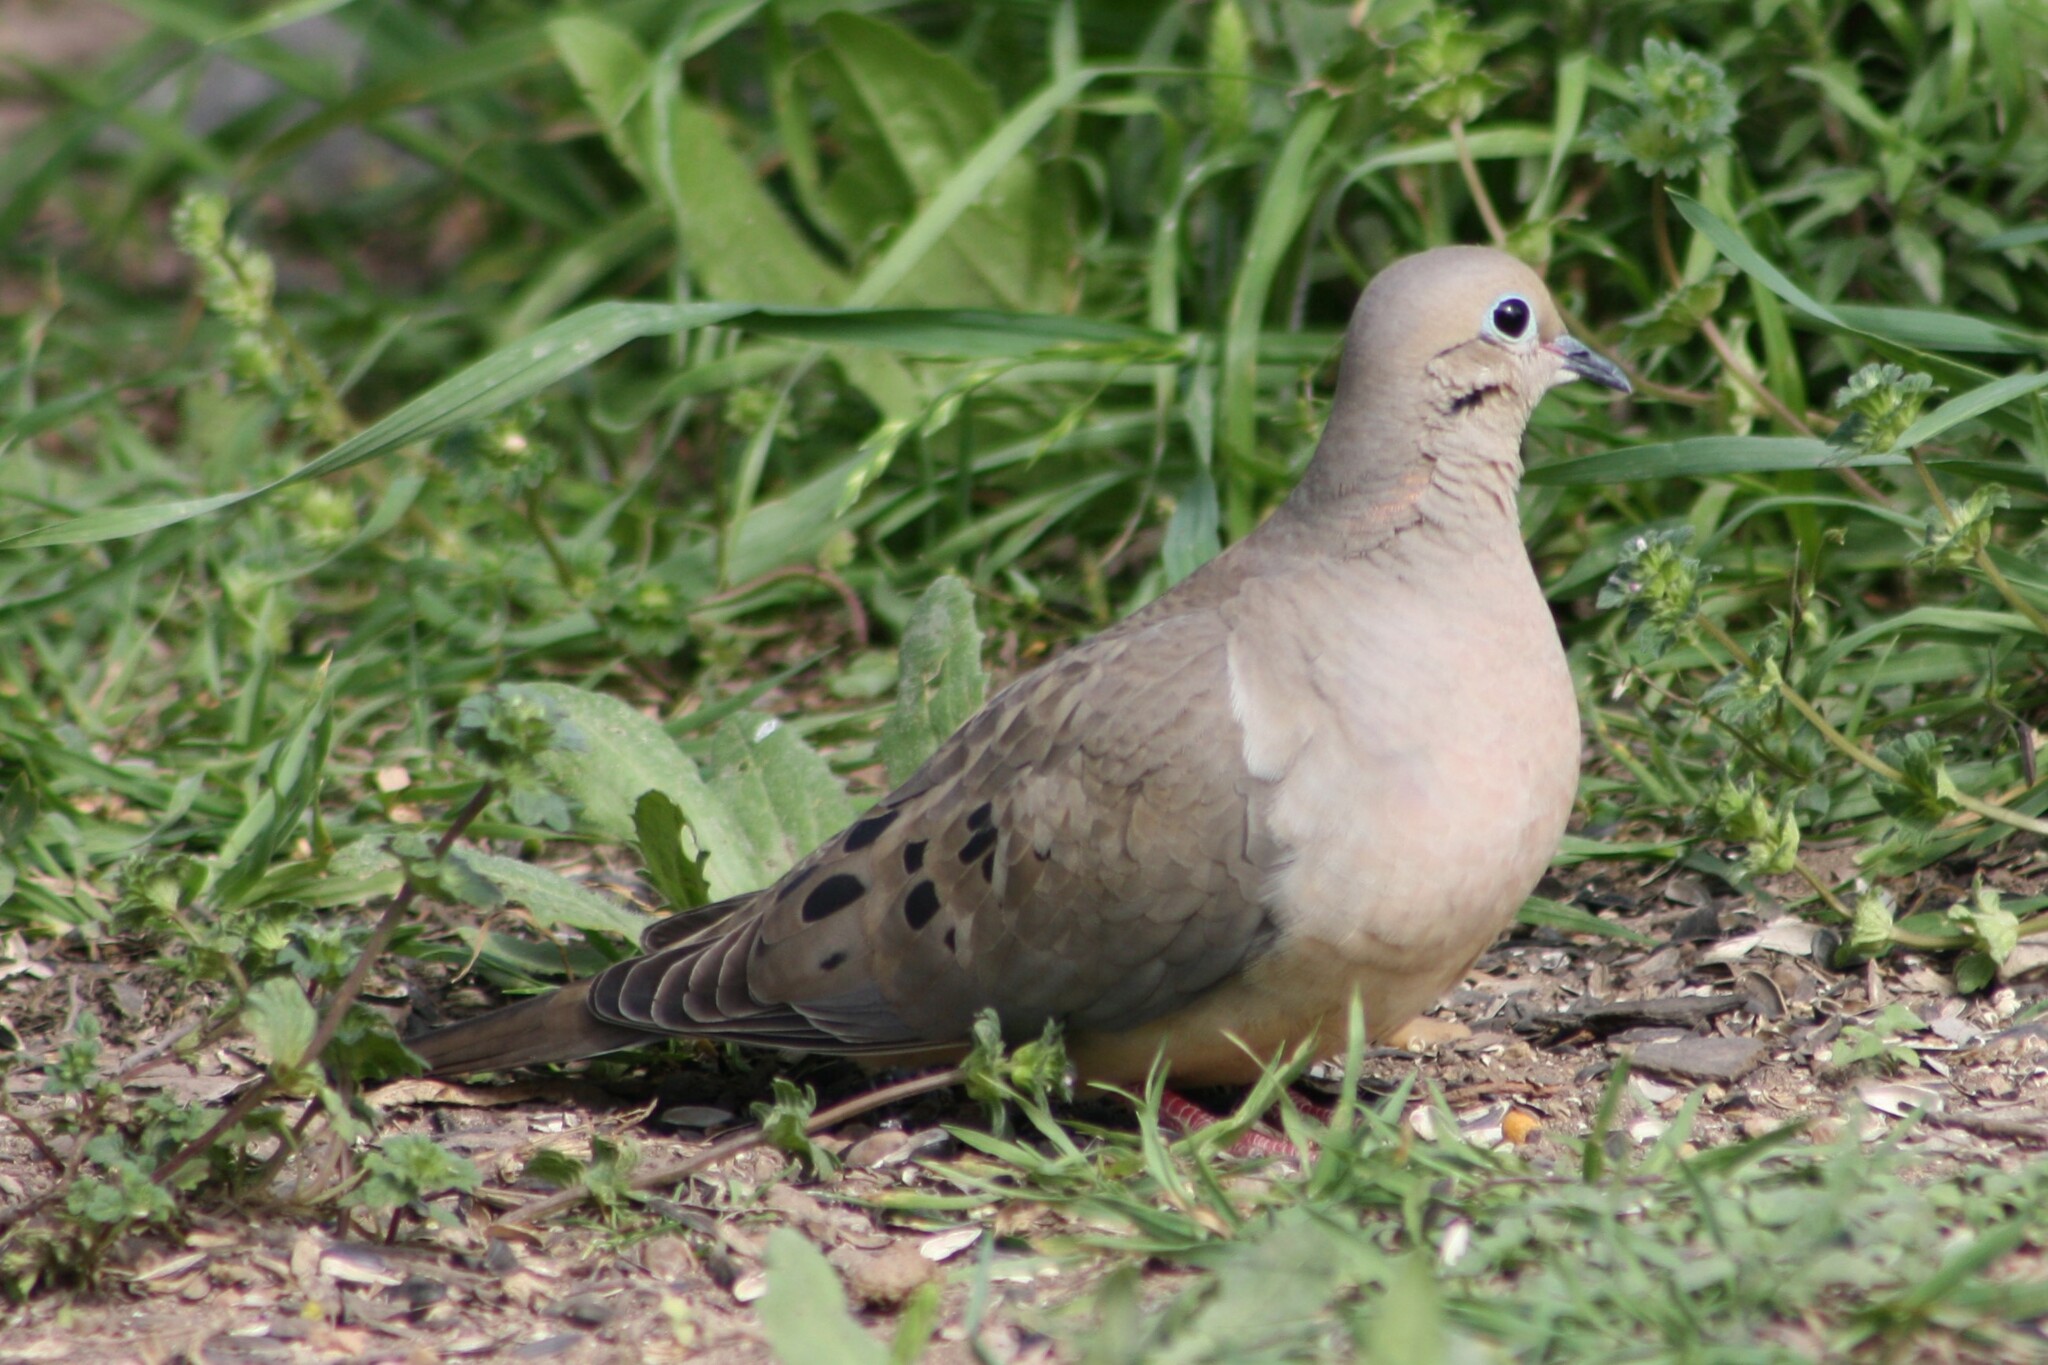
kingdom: Animalia
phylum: Chordata
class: Aves
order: Columbiformes
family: Columbidae
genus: Zenaida
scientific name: Zenaida macroura
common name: Mourning dove
